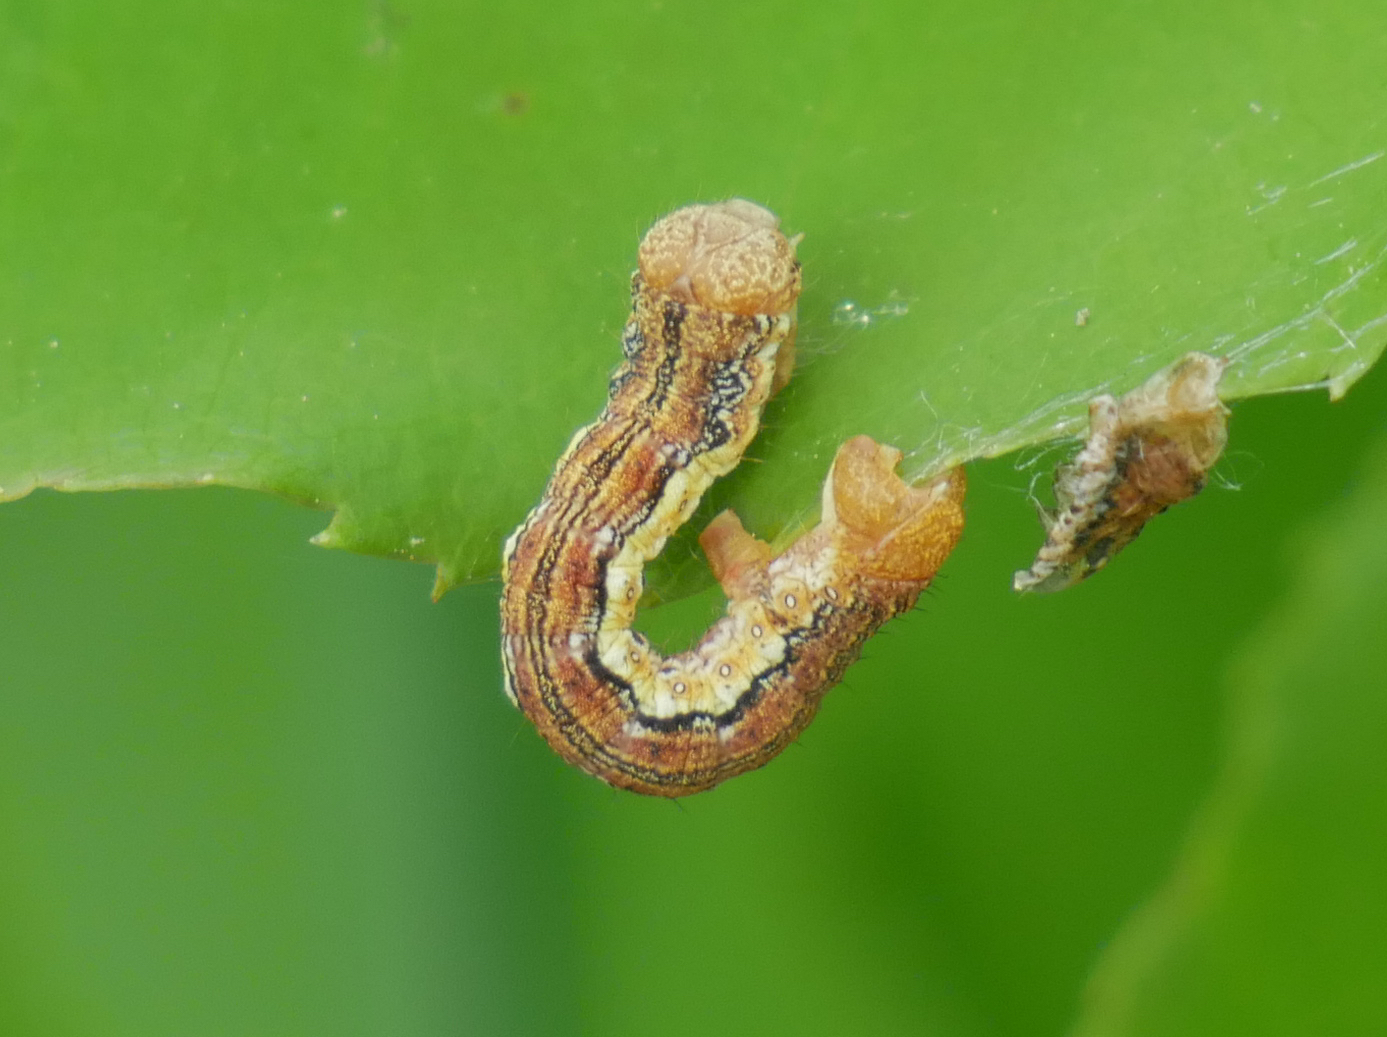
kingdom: Animalia
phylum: Arthropoda
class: Insecta
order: Lepidoptera
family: Geometridae
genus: Erannis
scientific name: Erannis defoliaria
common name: Mottled umber
